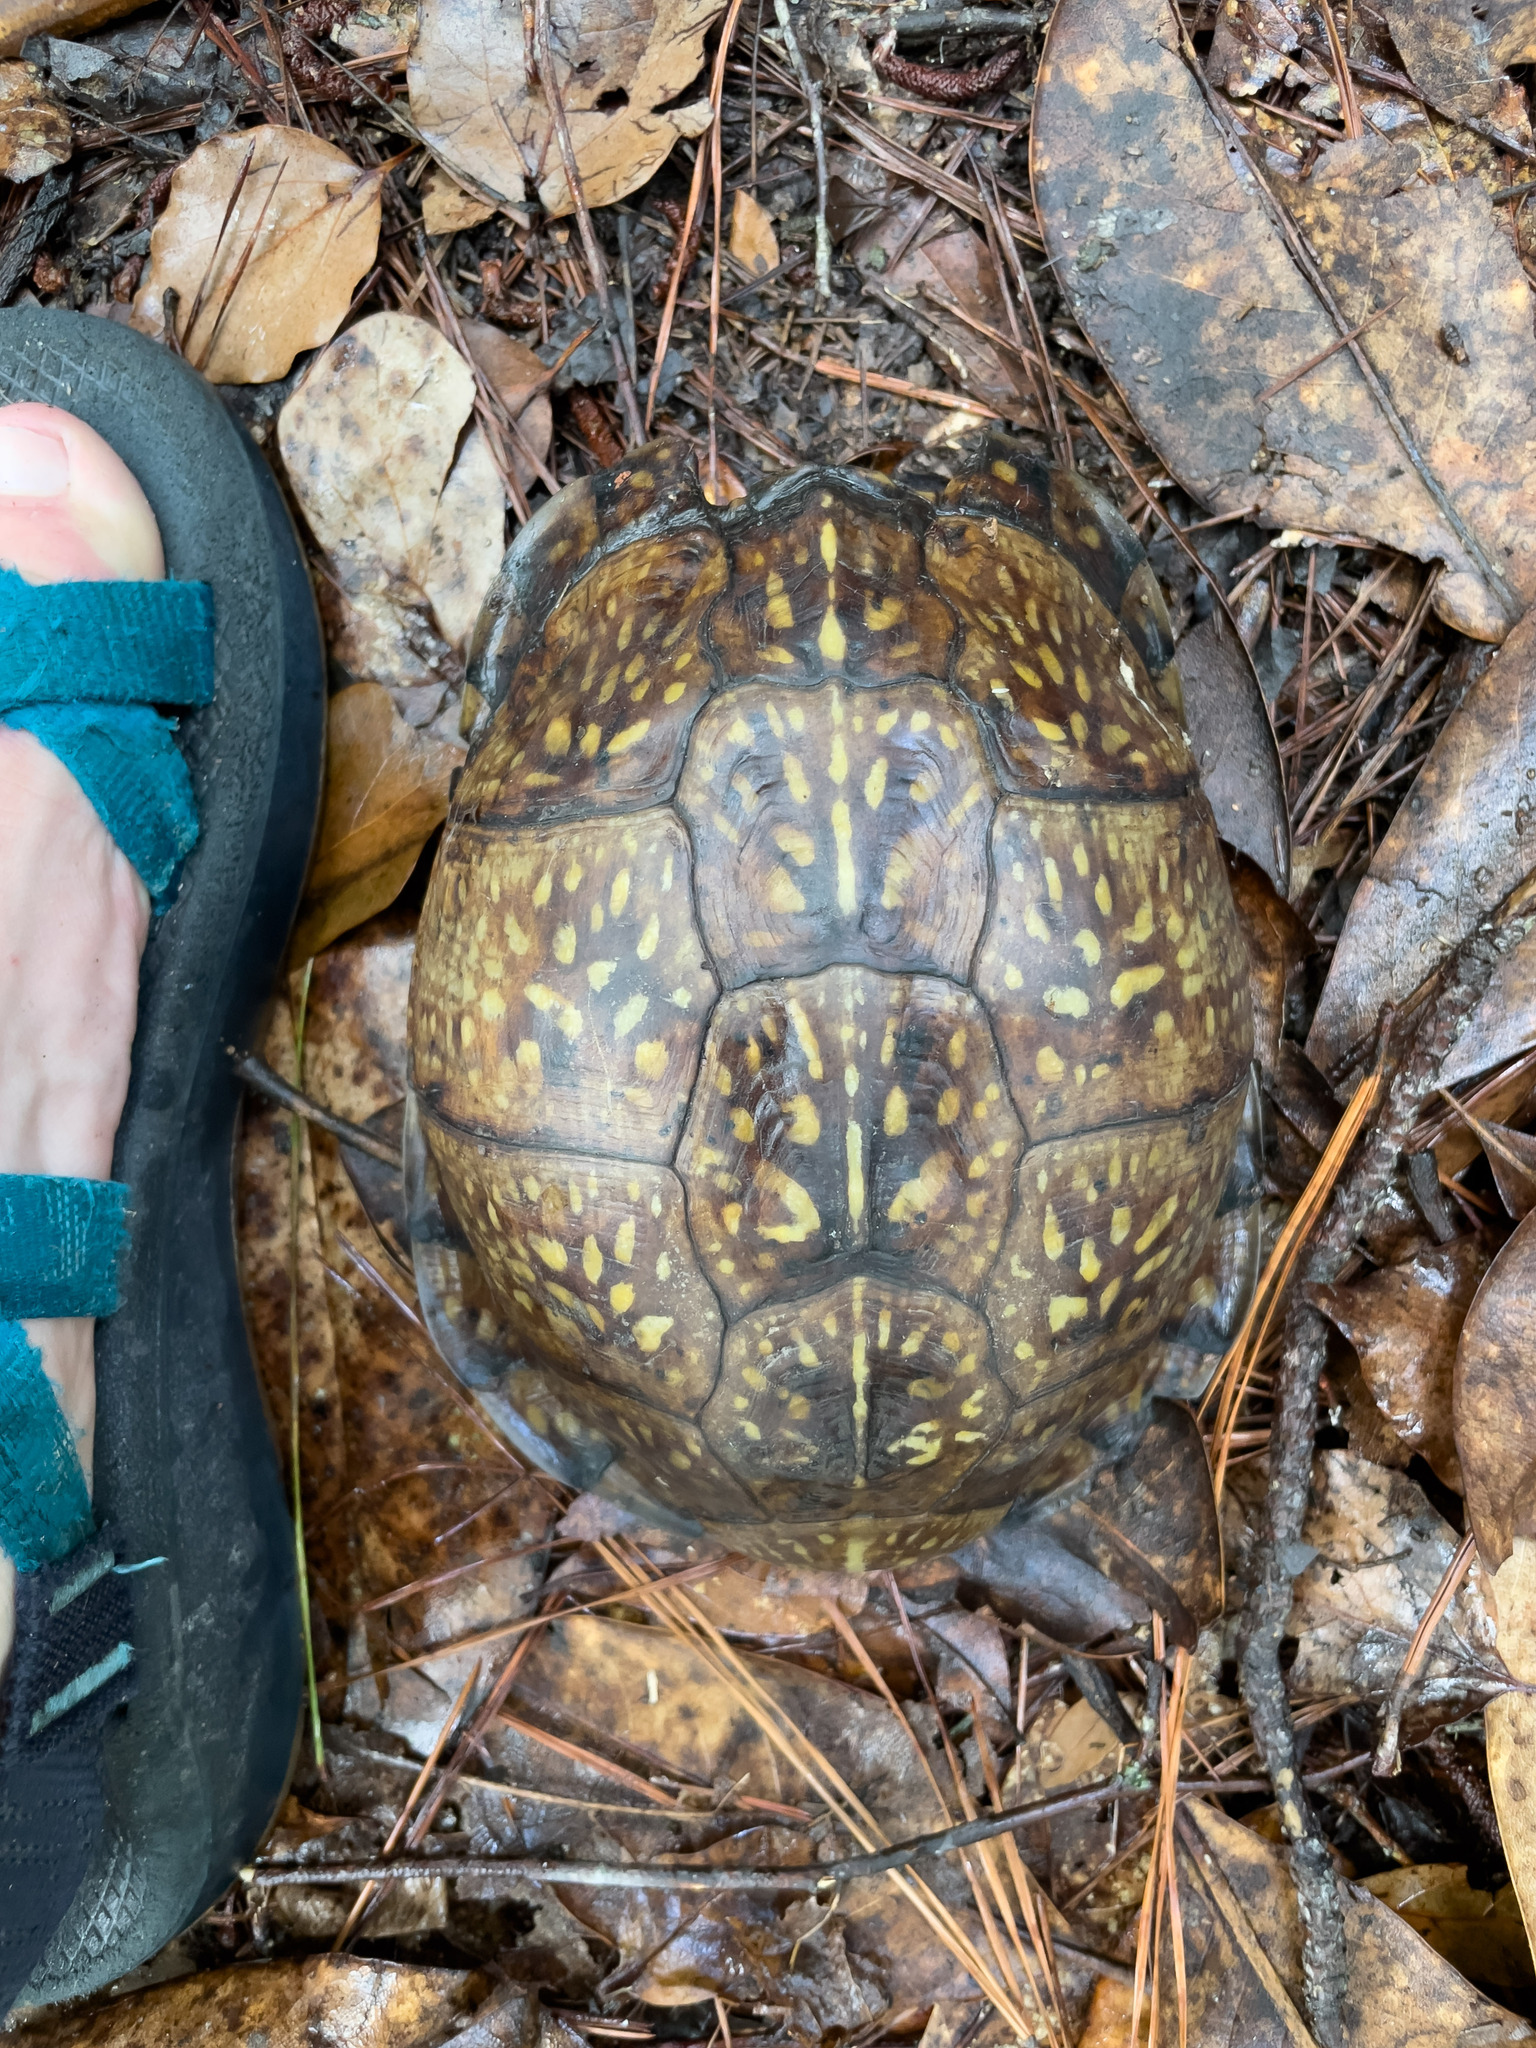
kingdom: Animalia
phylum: Chordata
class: Testudines
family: Emydidae
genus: Terrapene
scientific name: Terrapene carolina
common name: Common box turtle
